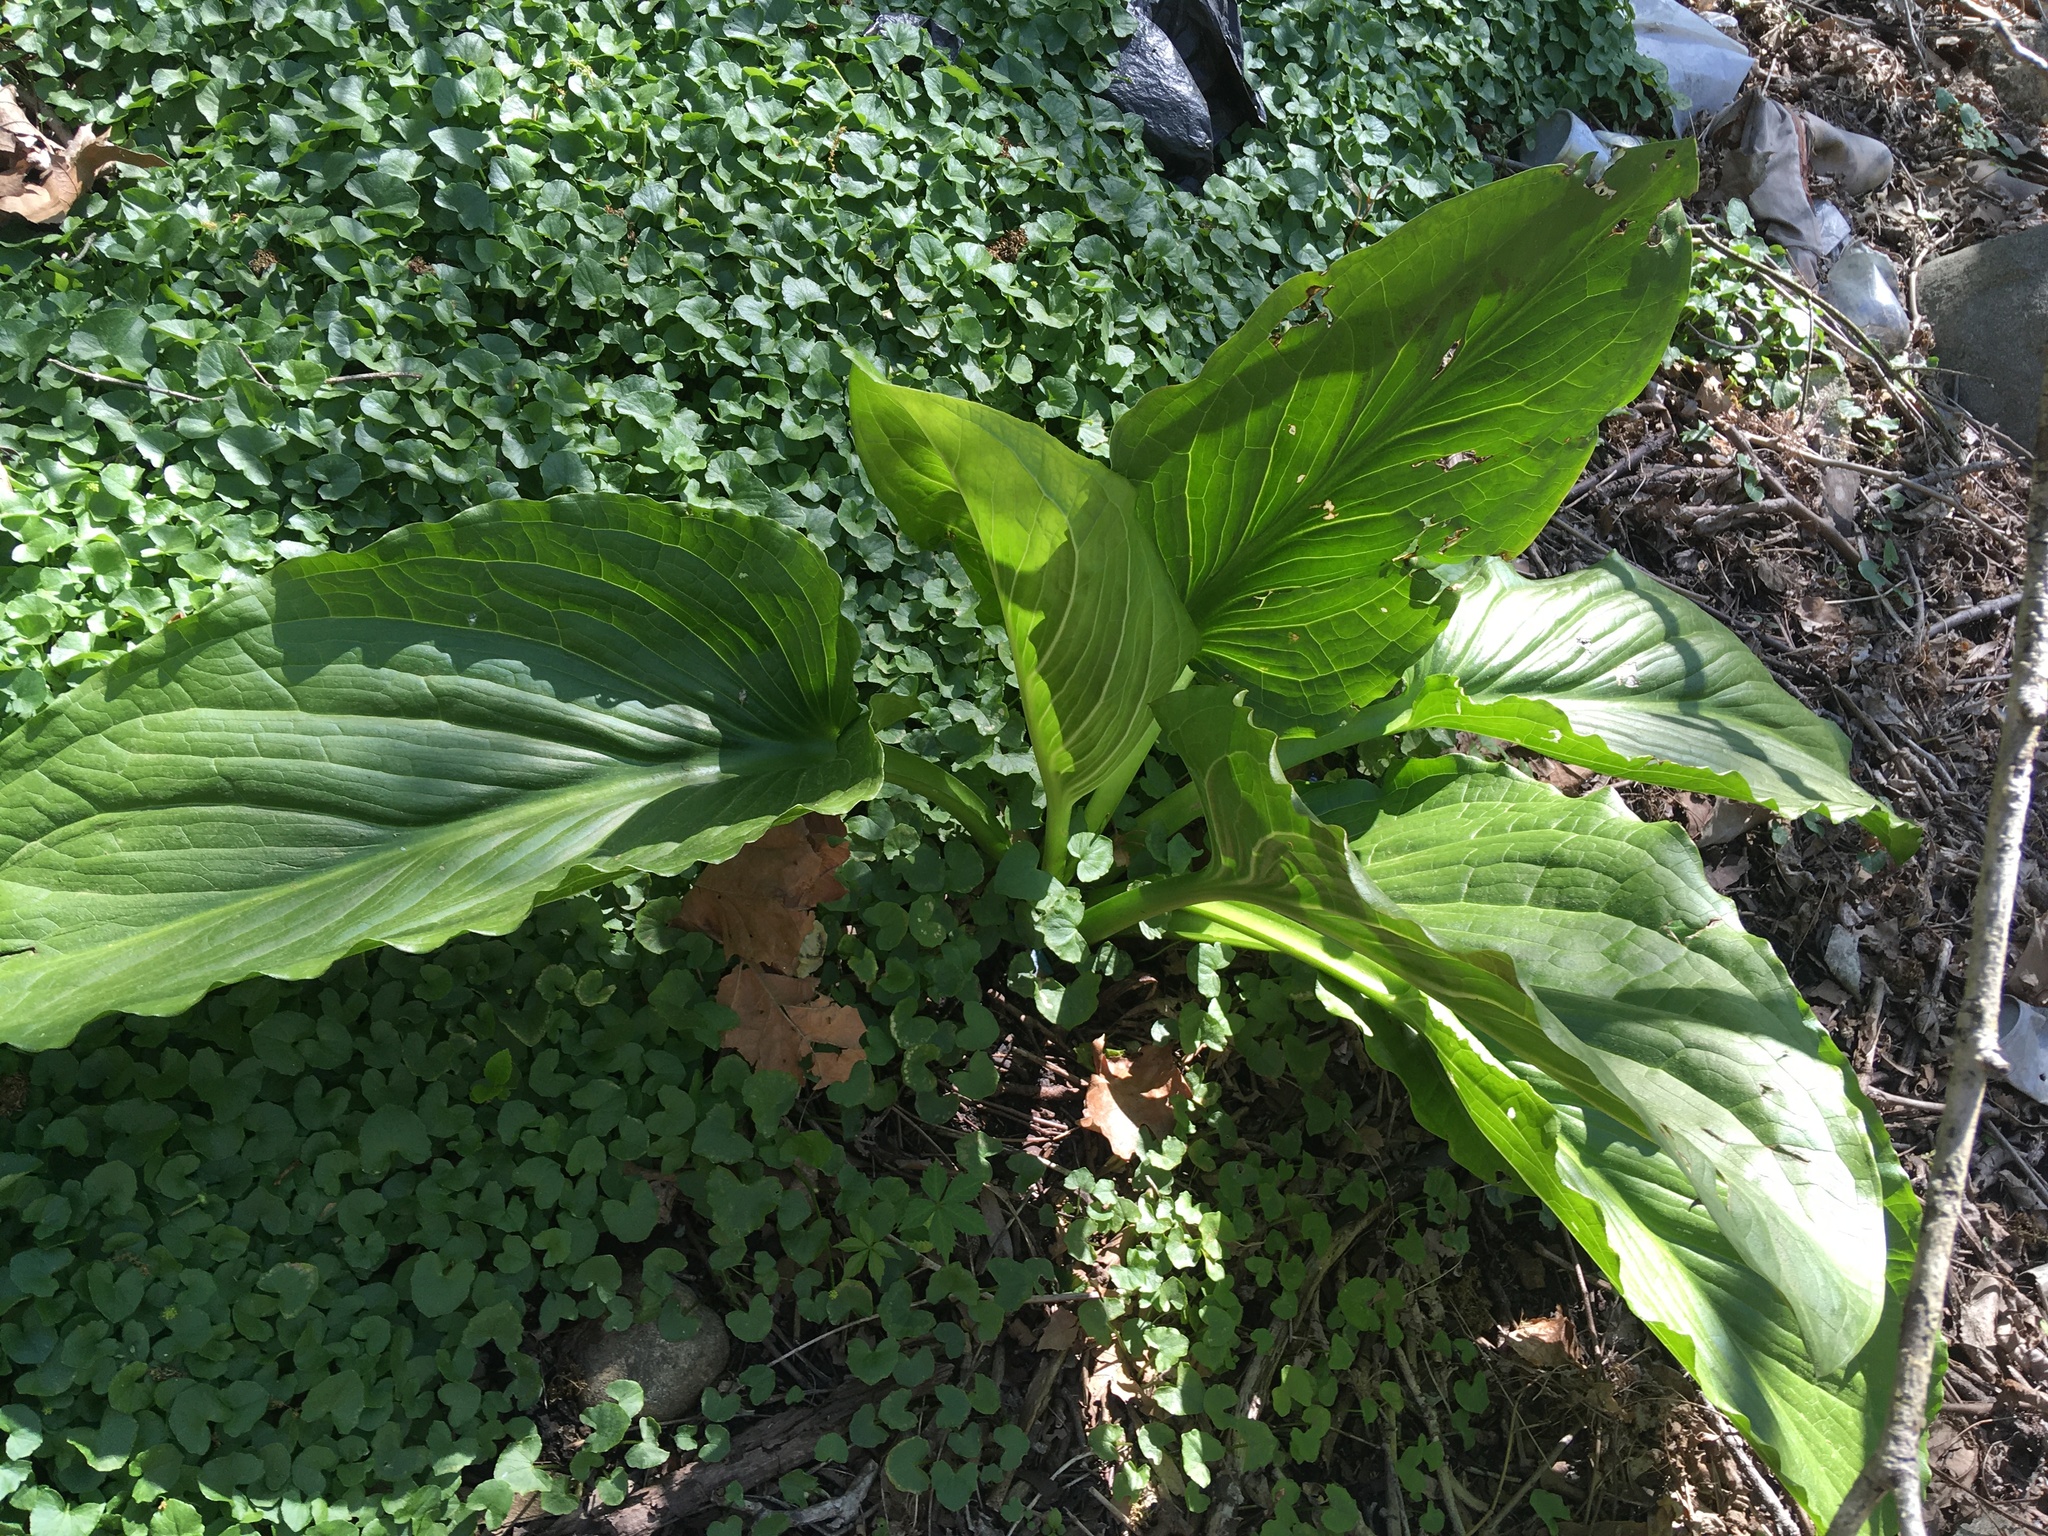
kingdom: Plantae
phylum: Tracheophyta
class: Liliopsida
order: Alismatales
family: Araceae
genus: Symplocarpus
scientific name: Symplocarpus foetidus
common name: Eastern skunk cabbage
